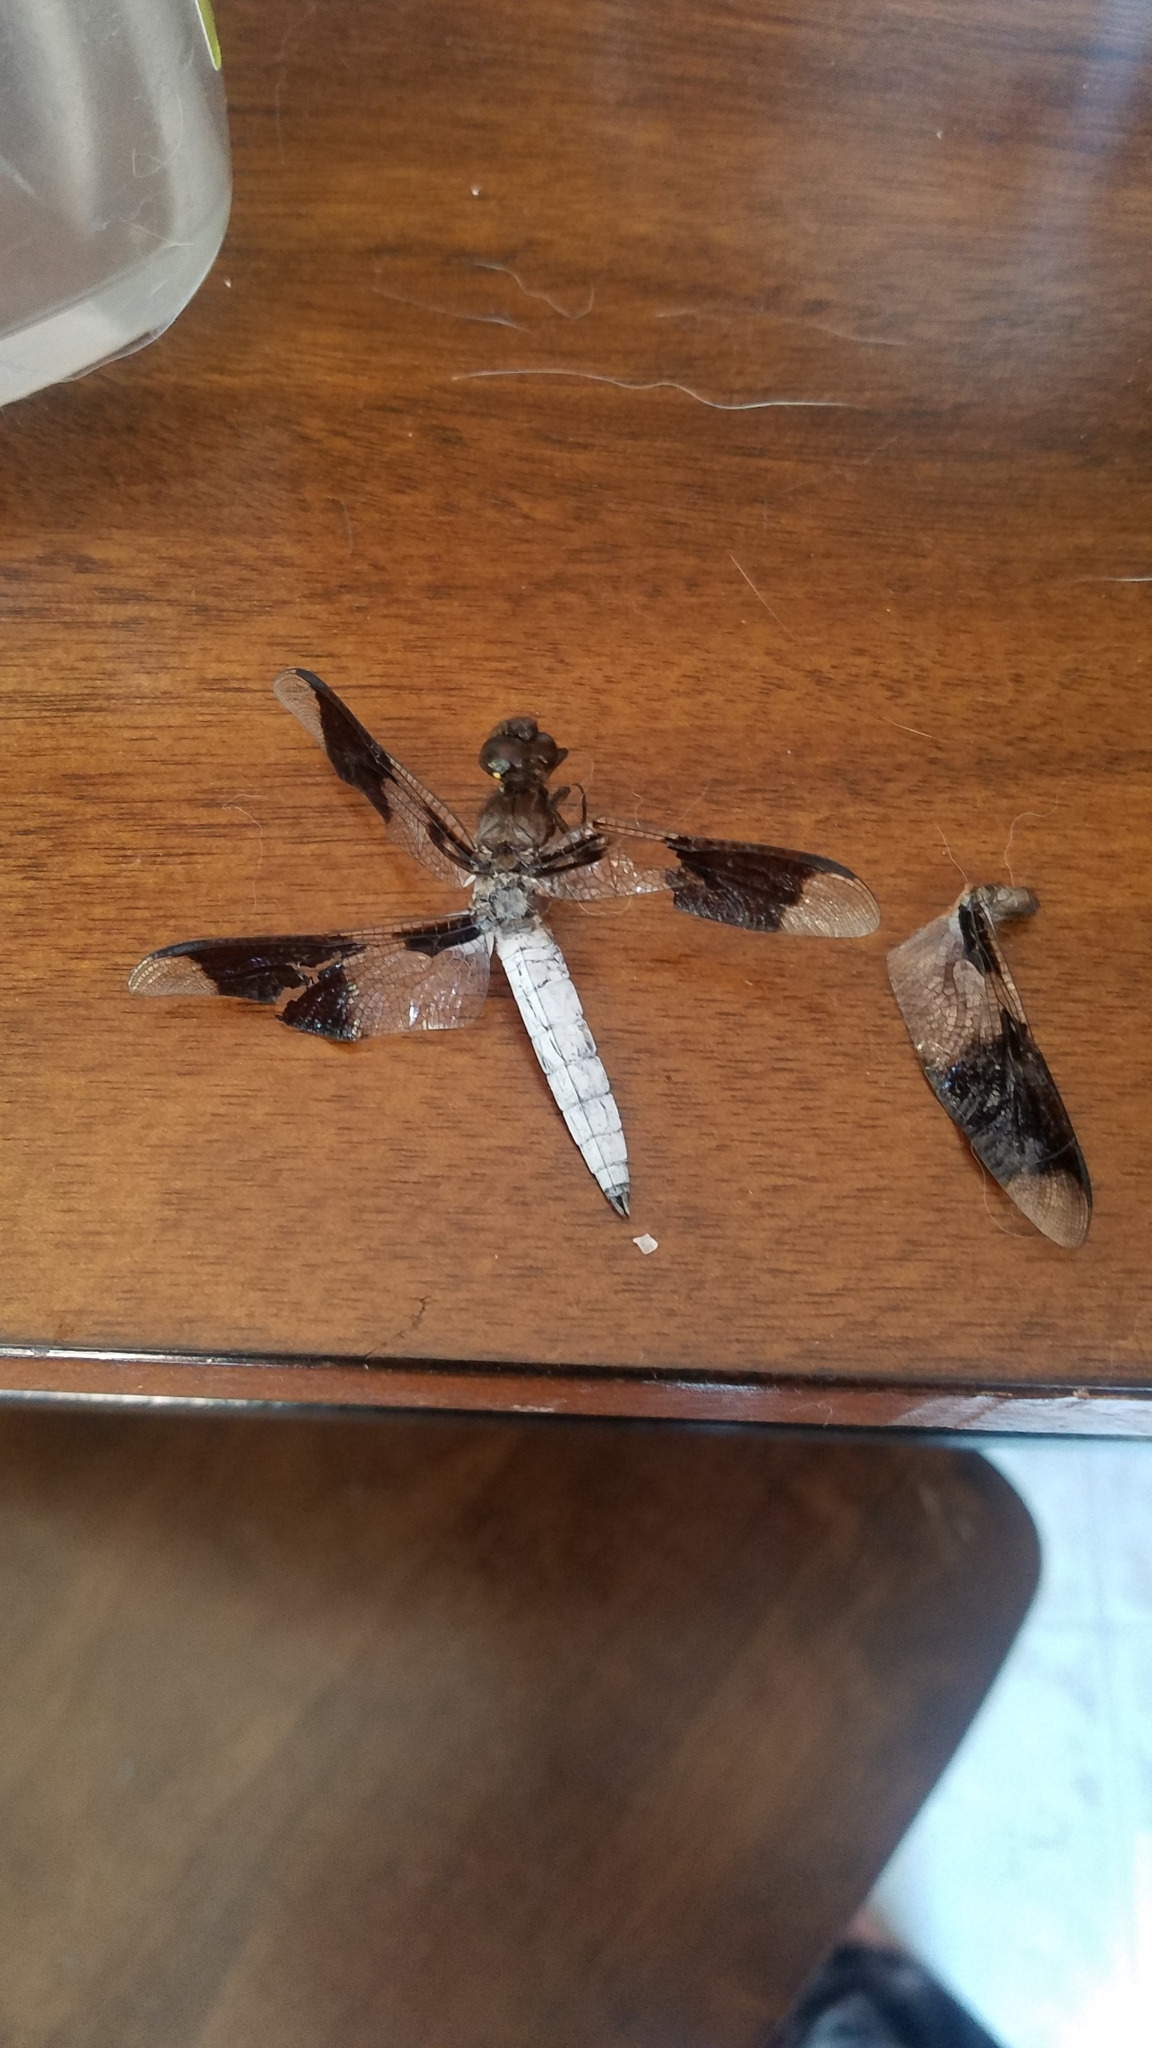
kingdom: Animalia
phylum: Arthropoda
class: Insecta
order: Odonata
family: Libellulidae
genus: Plathemis
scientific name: Plathemis lydia
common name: Common whitetail
